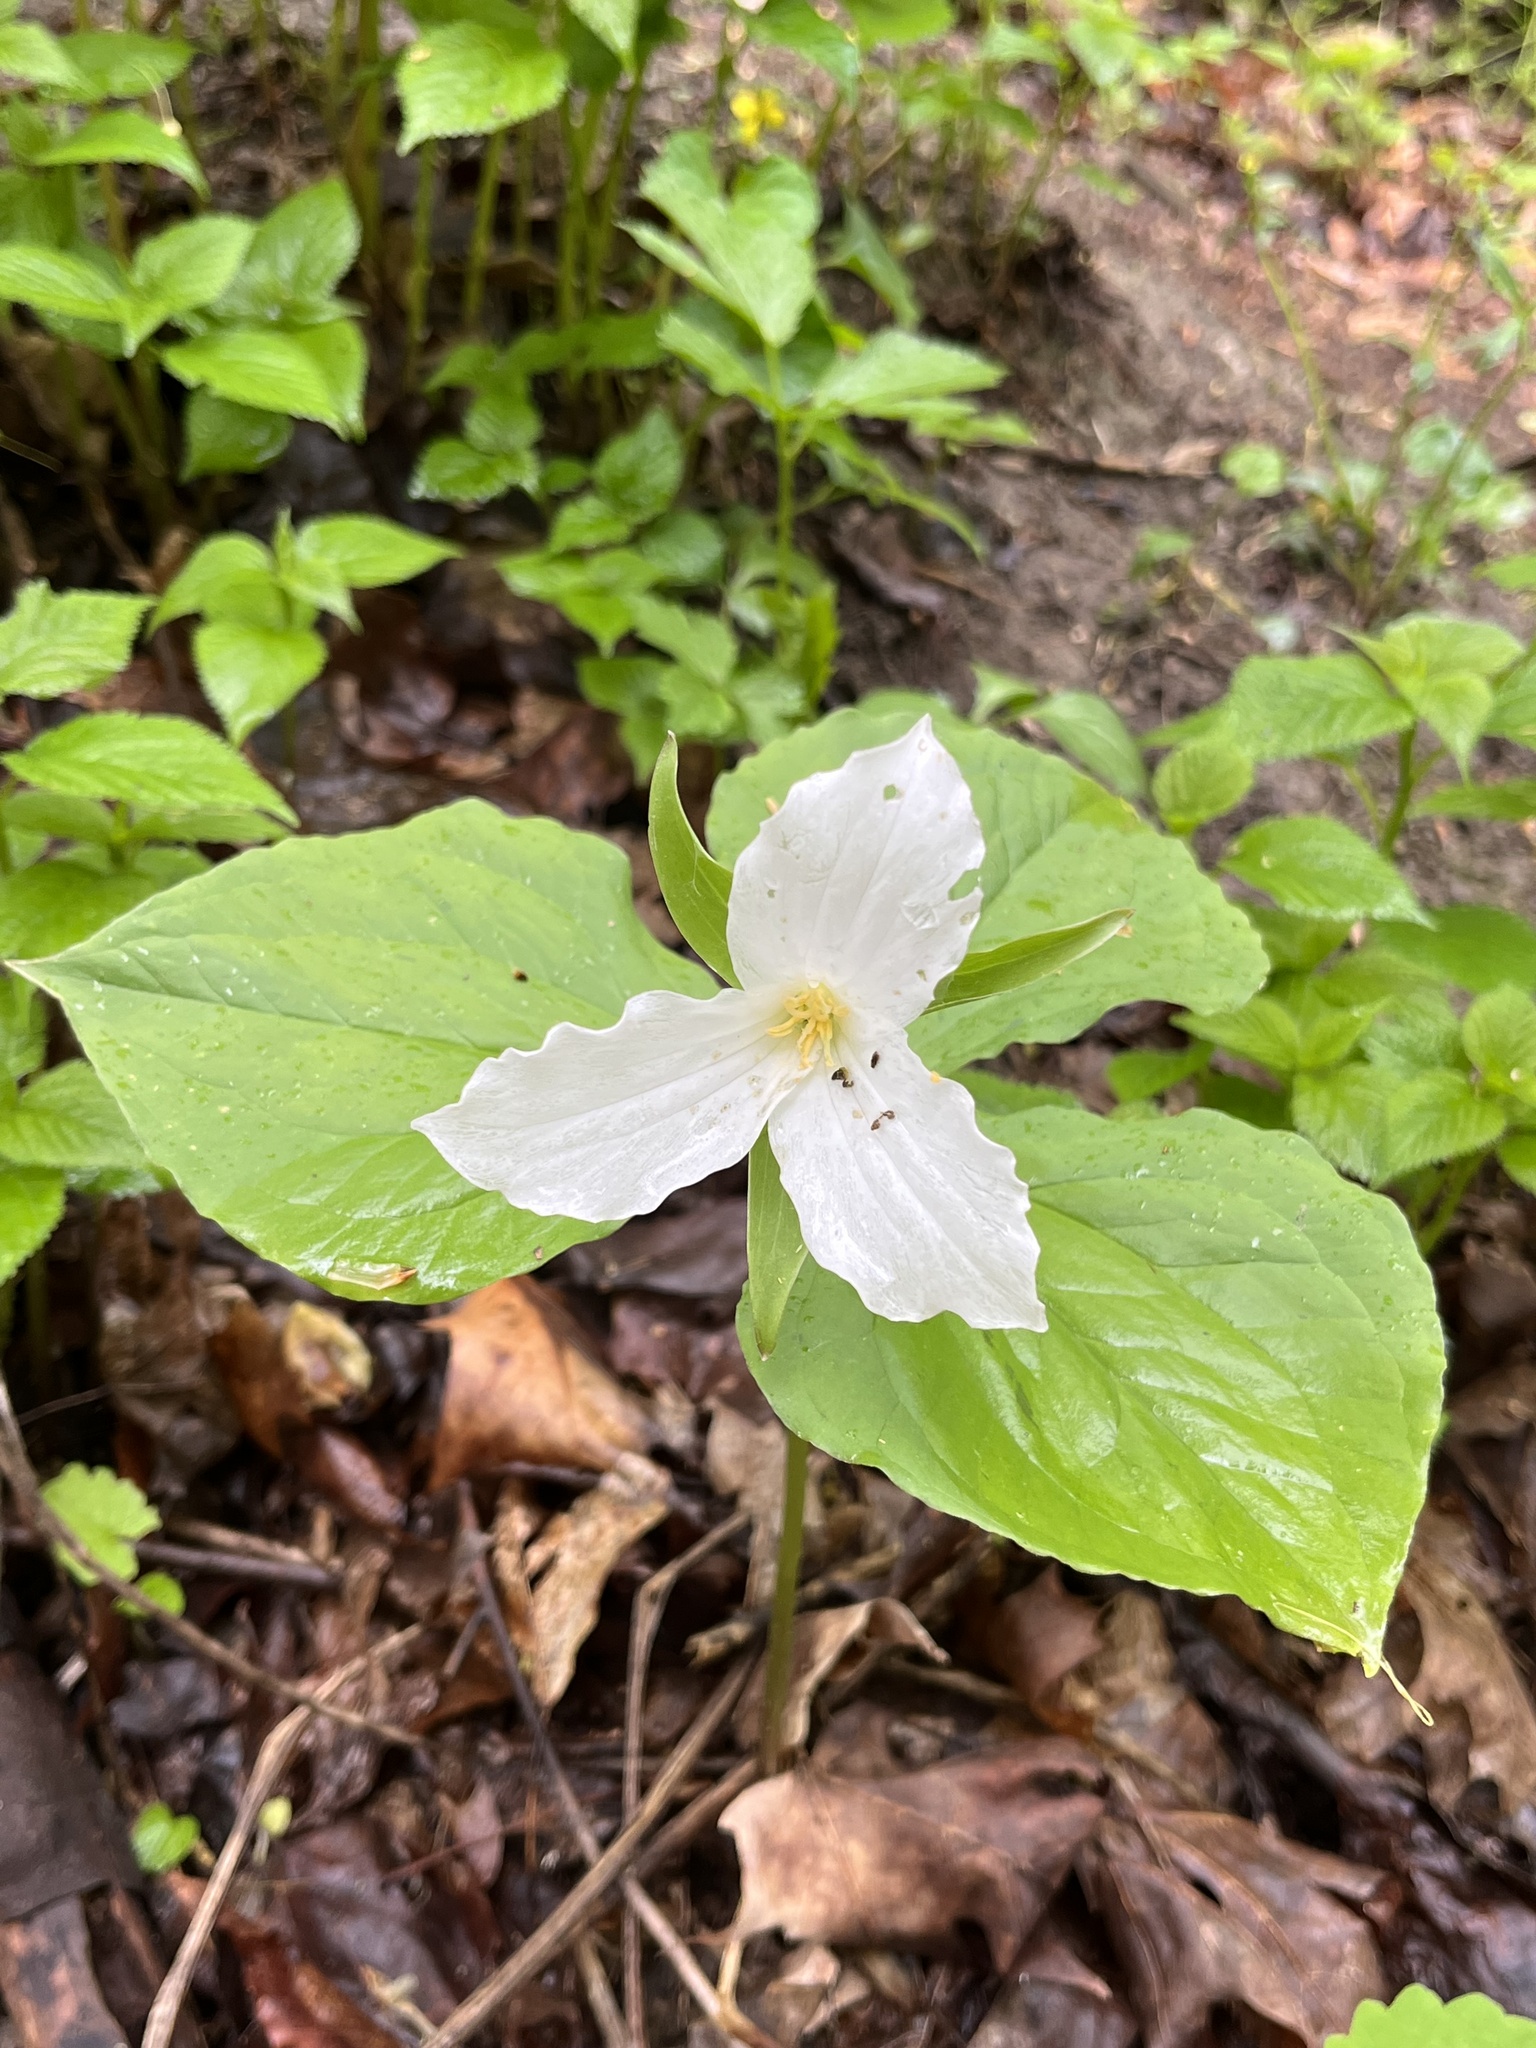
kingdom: Plantae
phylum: Tracheophyta
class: Liliopsida
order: Liliales
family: Melanthiaceae
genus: Trillium
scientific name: Trillium grandiflorum
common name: Great white trillium
